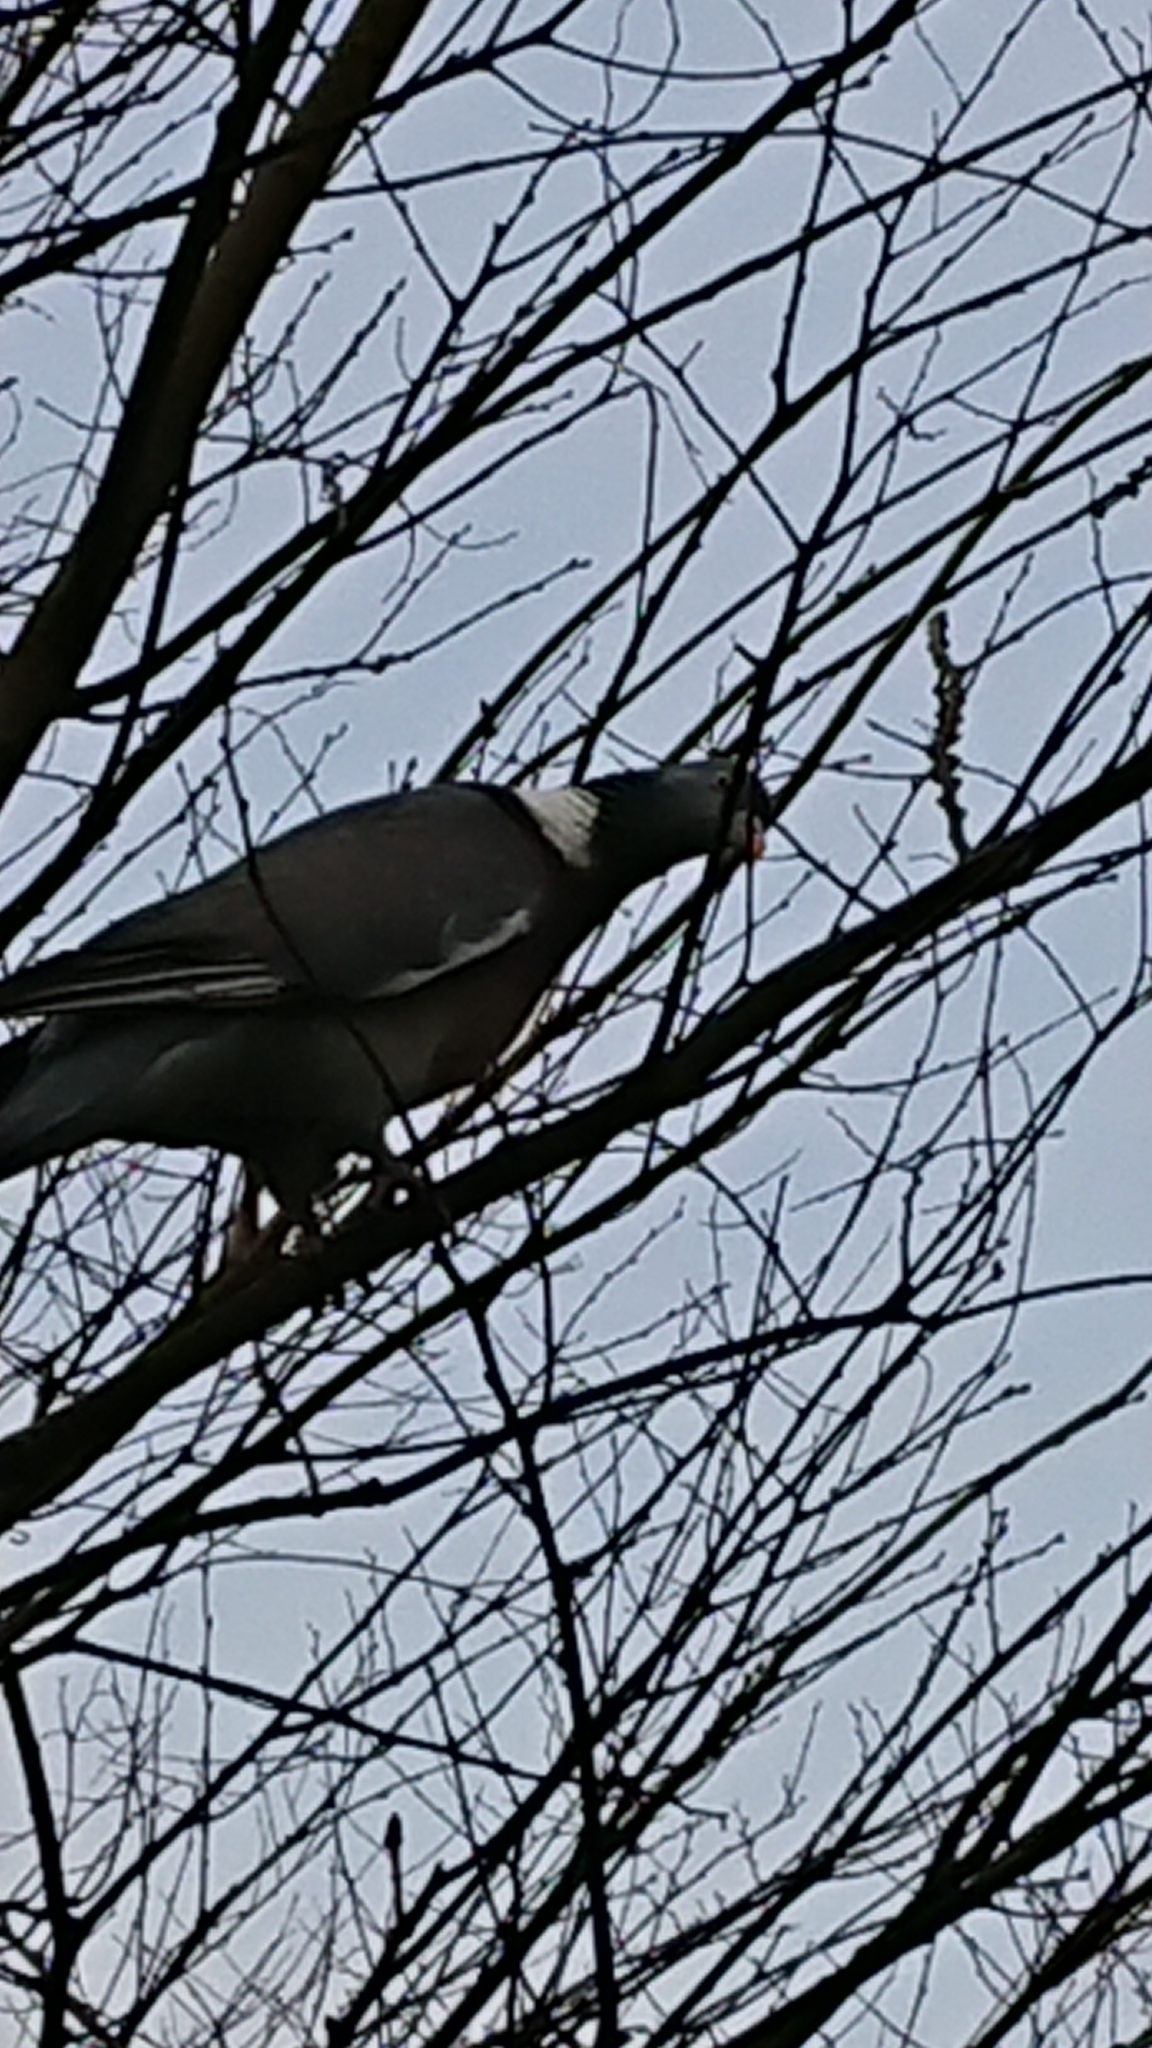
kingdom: Animalia
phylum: Chordata
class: Aves
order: Columbiformes
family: Columbidae
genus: Columba
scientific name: Columba palumbus
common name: Common wood pigeon
